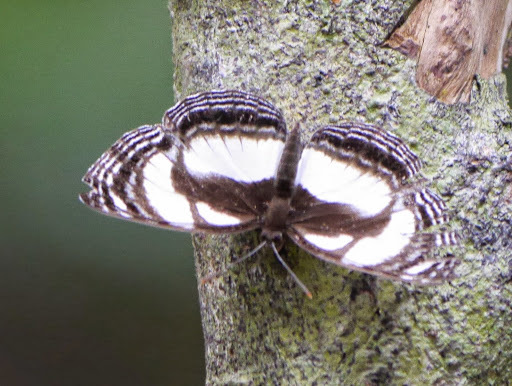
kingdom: Animalia
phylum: Arthropoda
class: Insecta
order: Lepidoptera
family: Nymphalidae
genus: Neptis
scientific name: Neptis nicomedes
